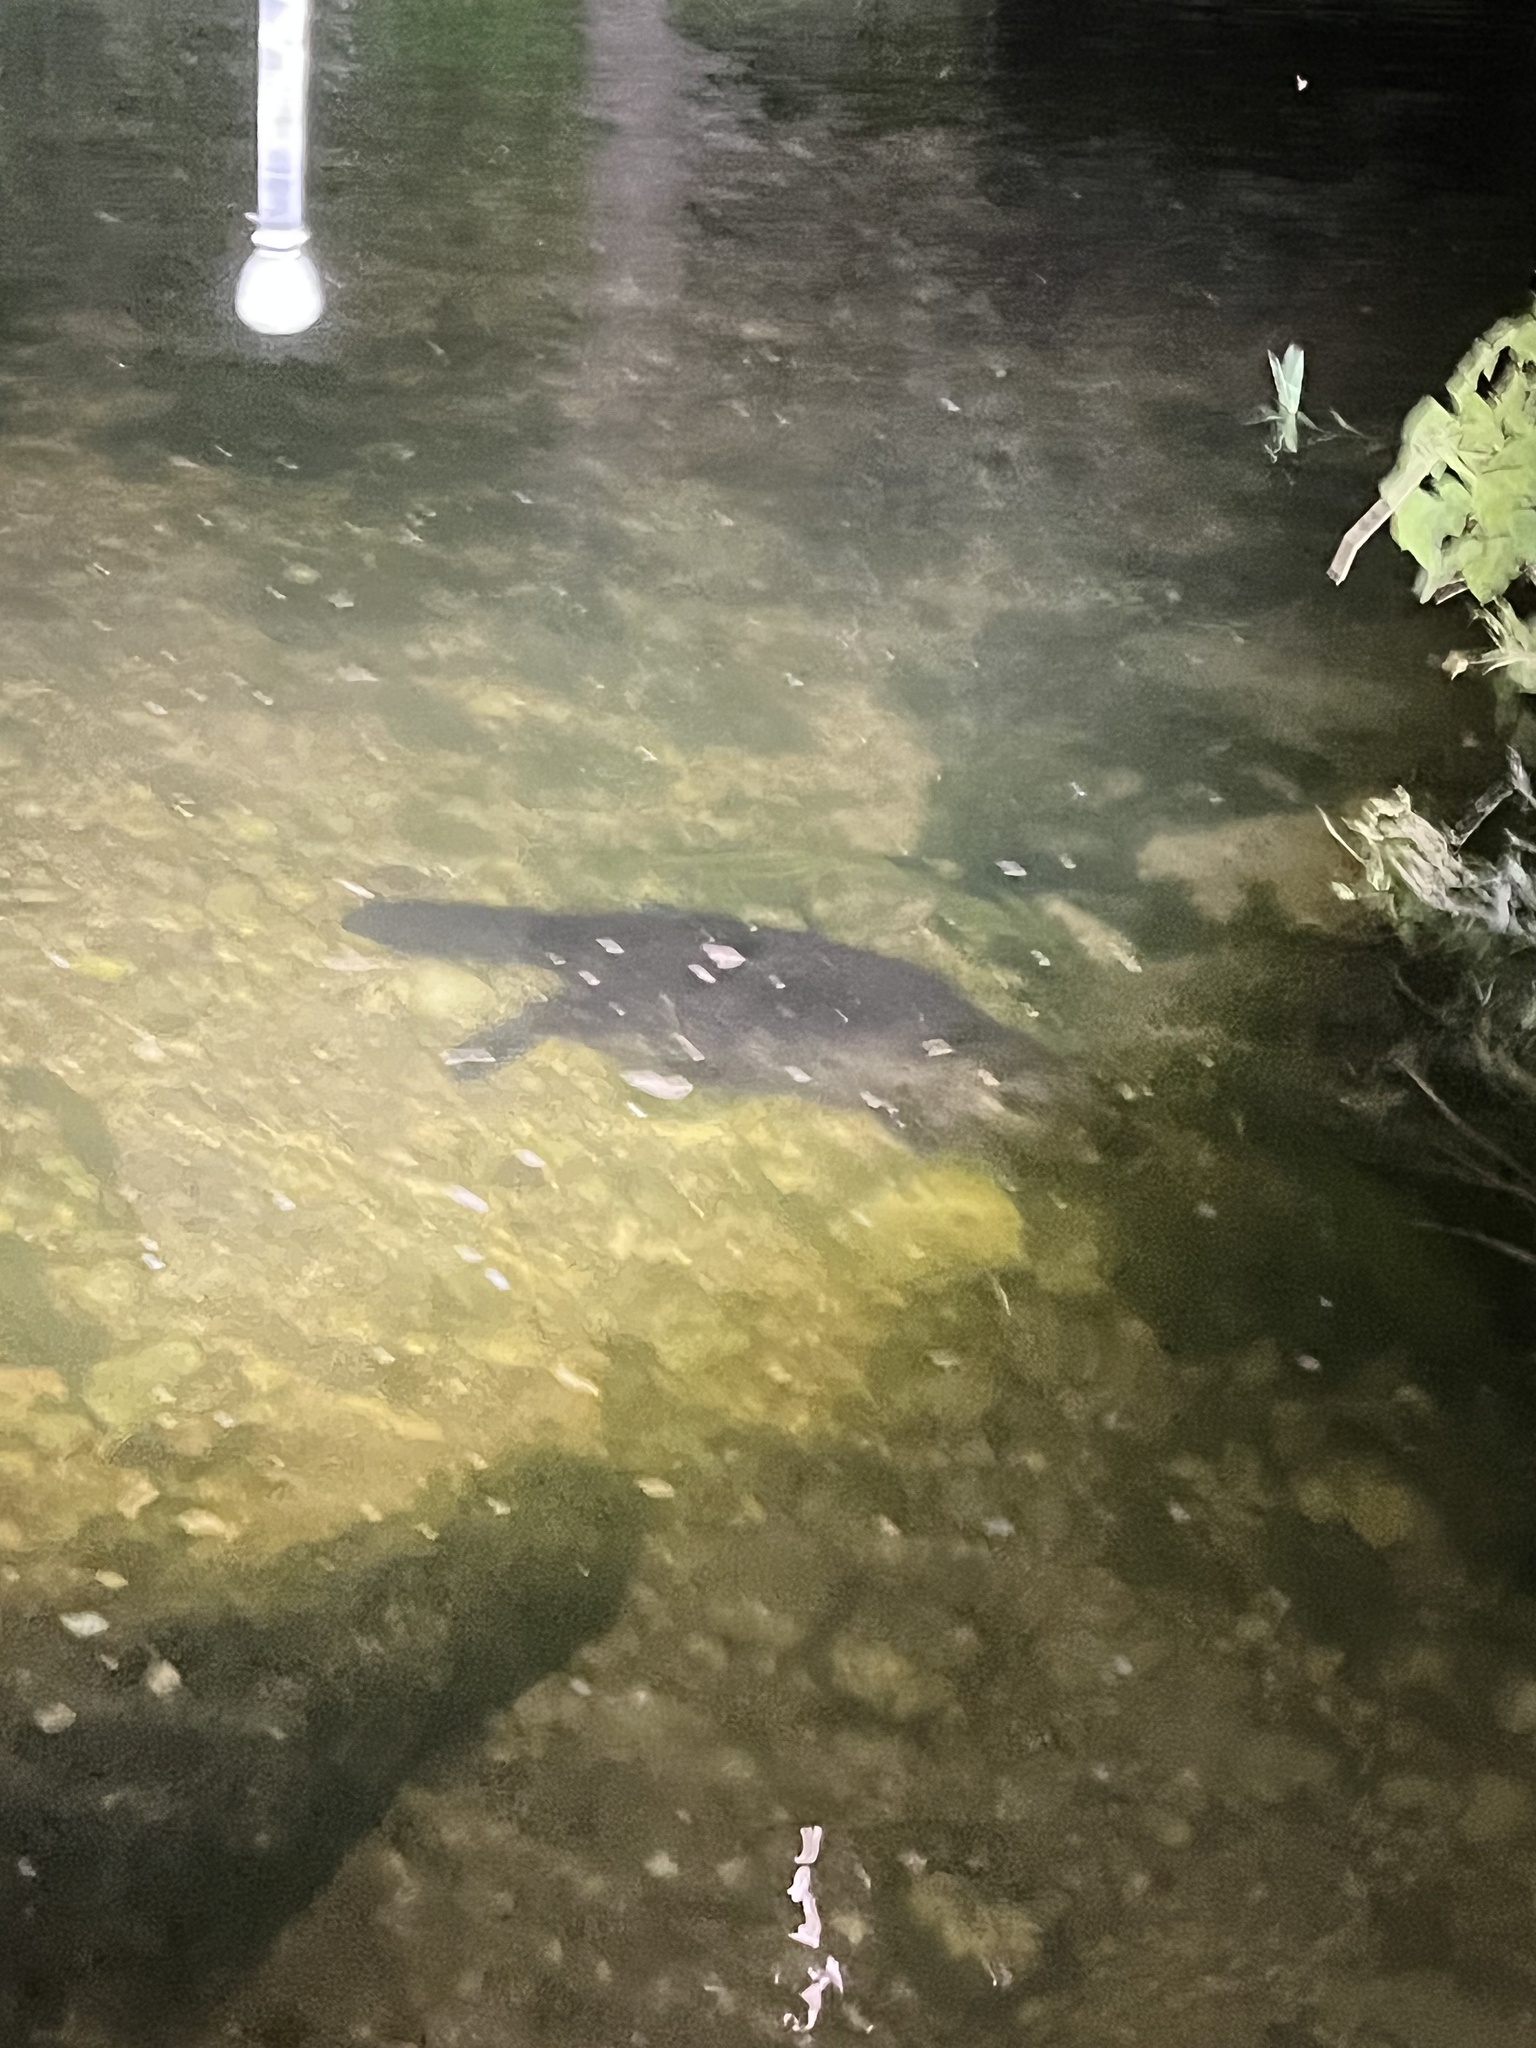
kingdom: Animalia
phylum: Chordata
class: Mammalia
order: Rodentia
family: Castoridae
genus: Castor
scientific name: Castor canadensis
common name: American beaver
